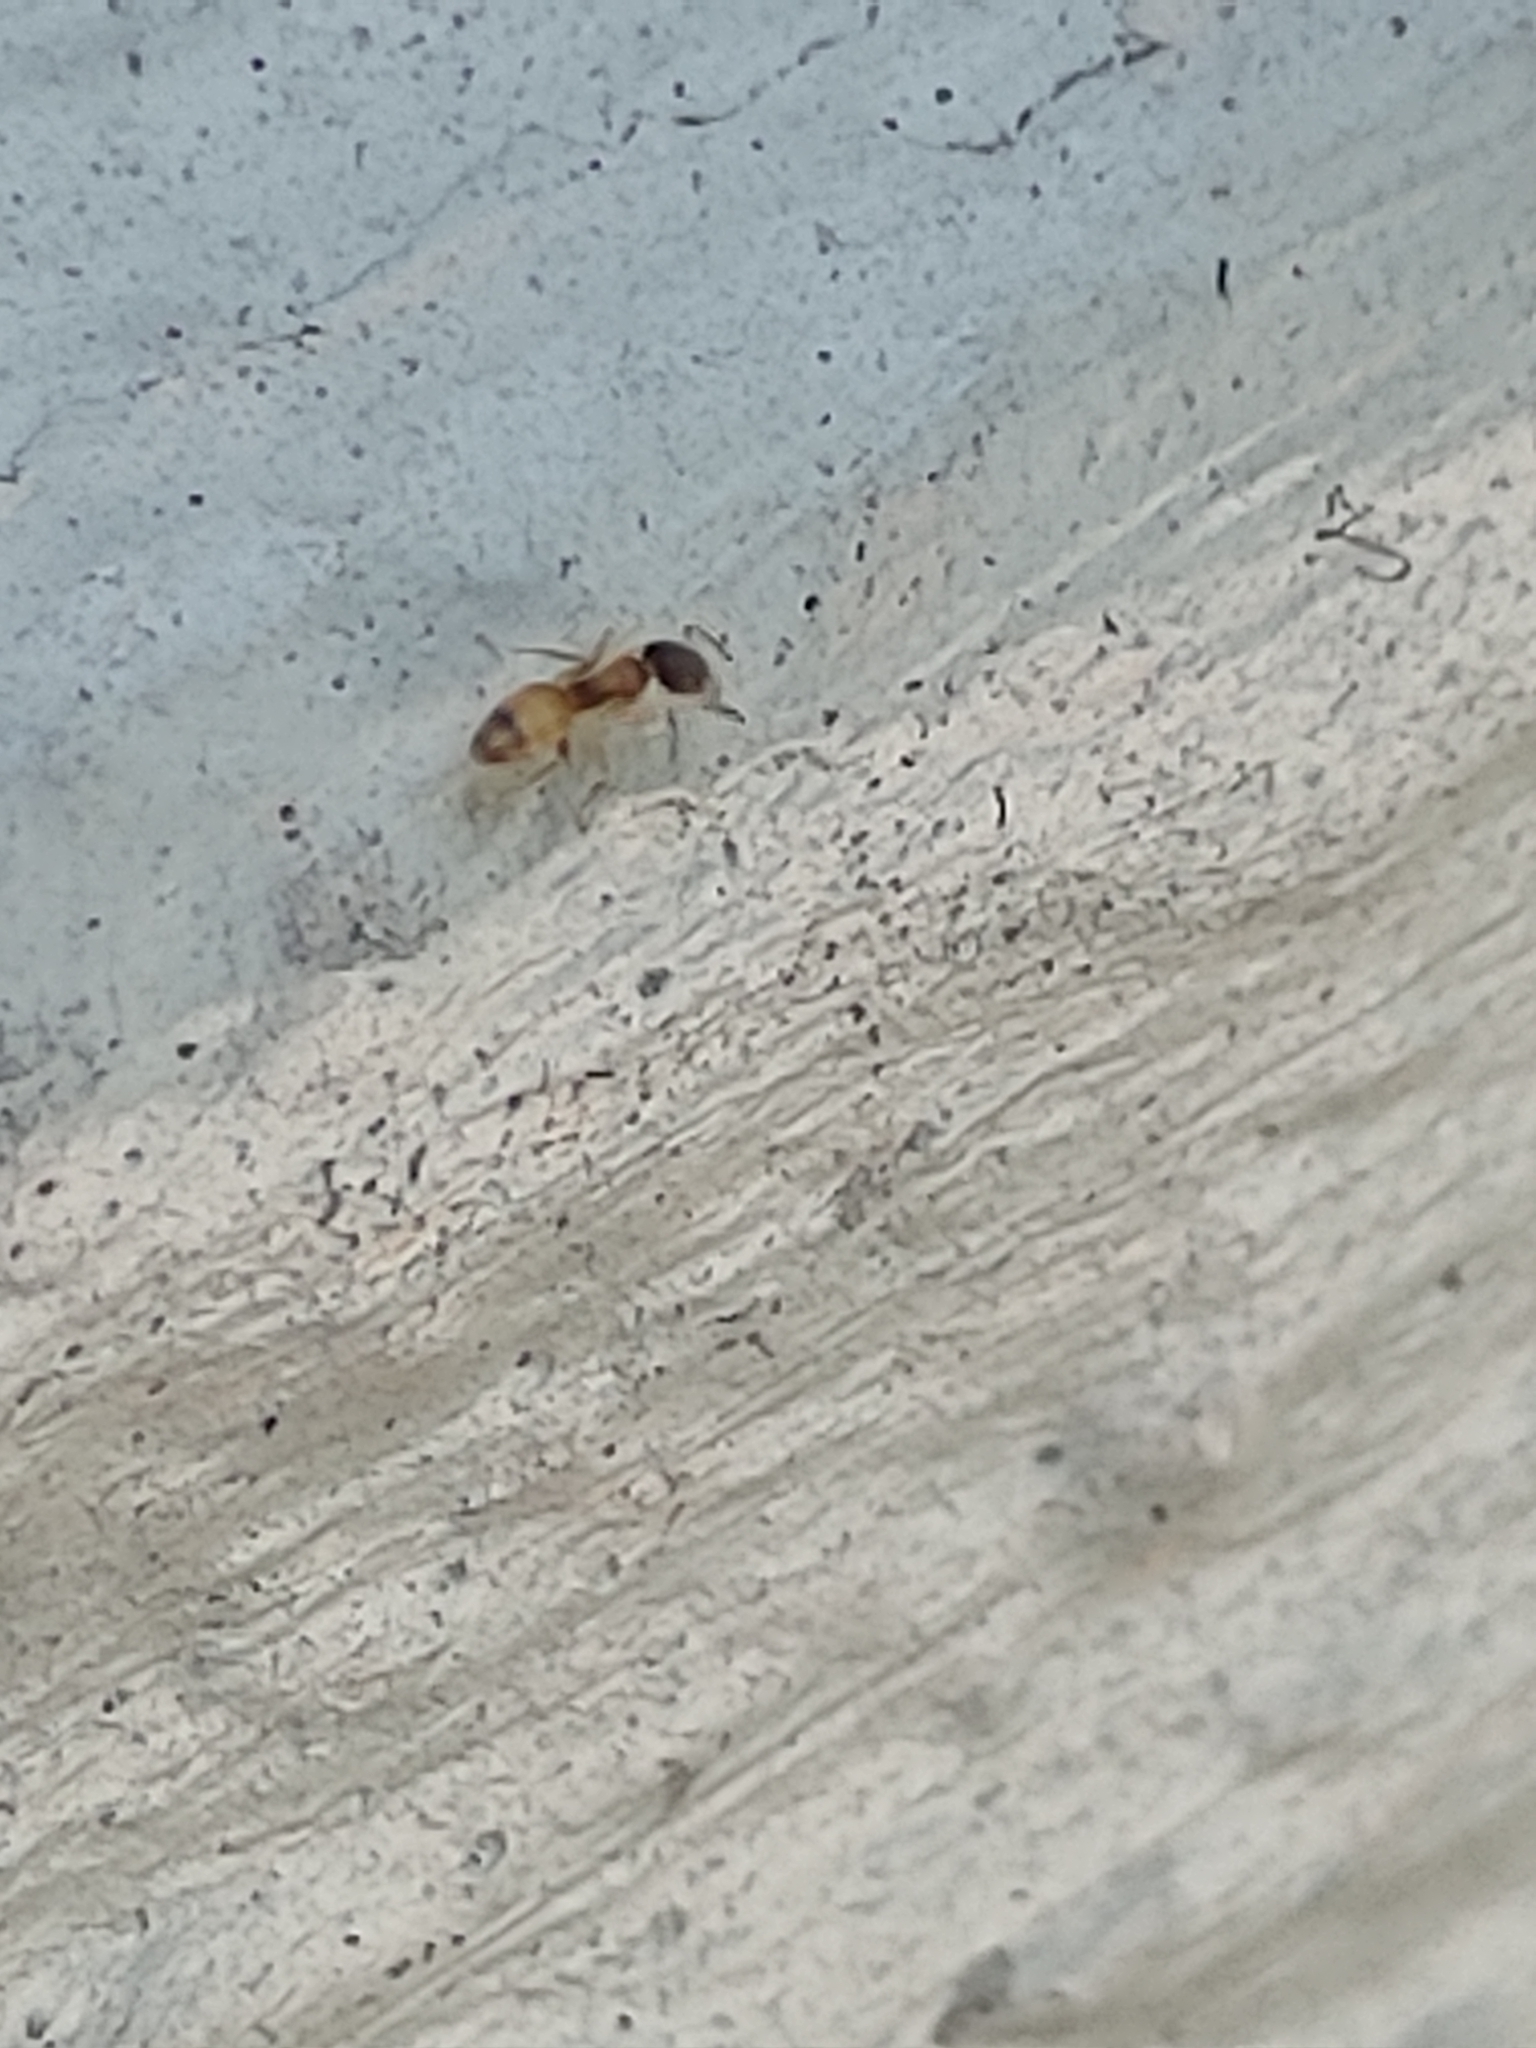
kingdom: Animalia
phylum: Arthropoda
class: Insecta
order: Hymenoptera
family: Formicidae
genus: Tapinoma
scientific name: Tapinoma melanocephalum
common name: Ghost ant
